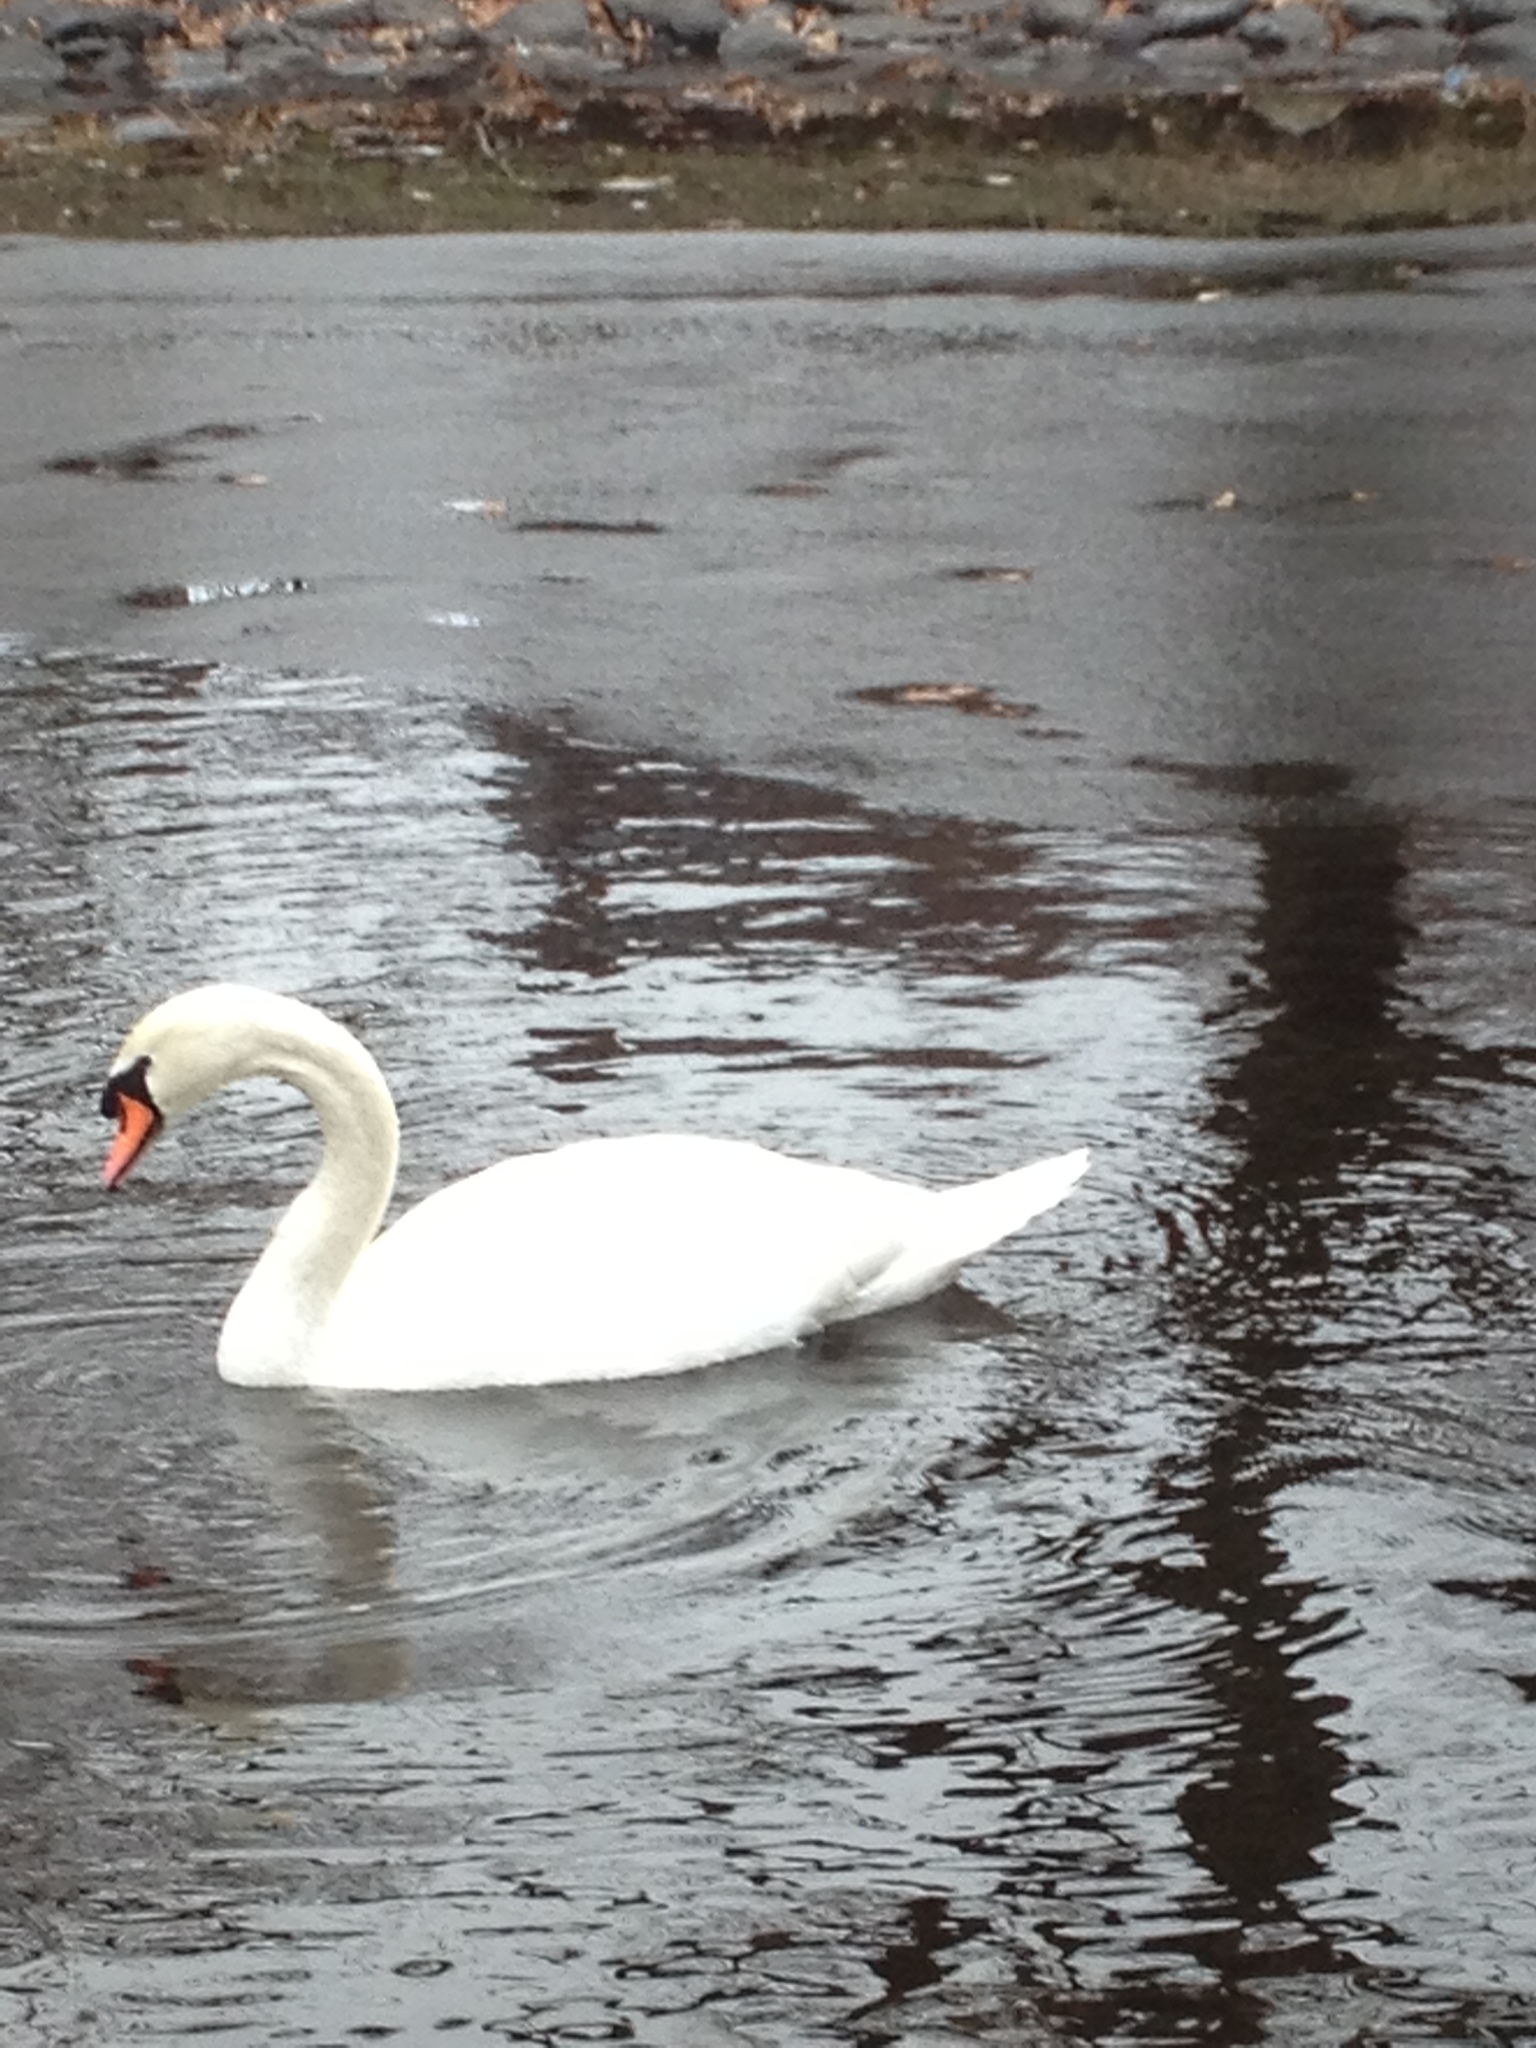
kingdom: Animalia
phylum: Chordata
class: Aves
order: Anseriformes
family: Anatidae
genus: Cygnus
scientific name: Cygnus olor
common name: Mute swan
